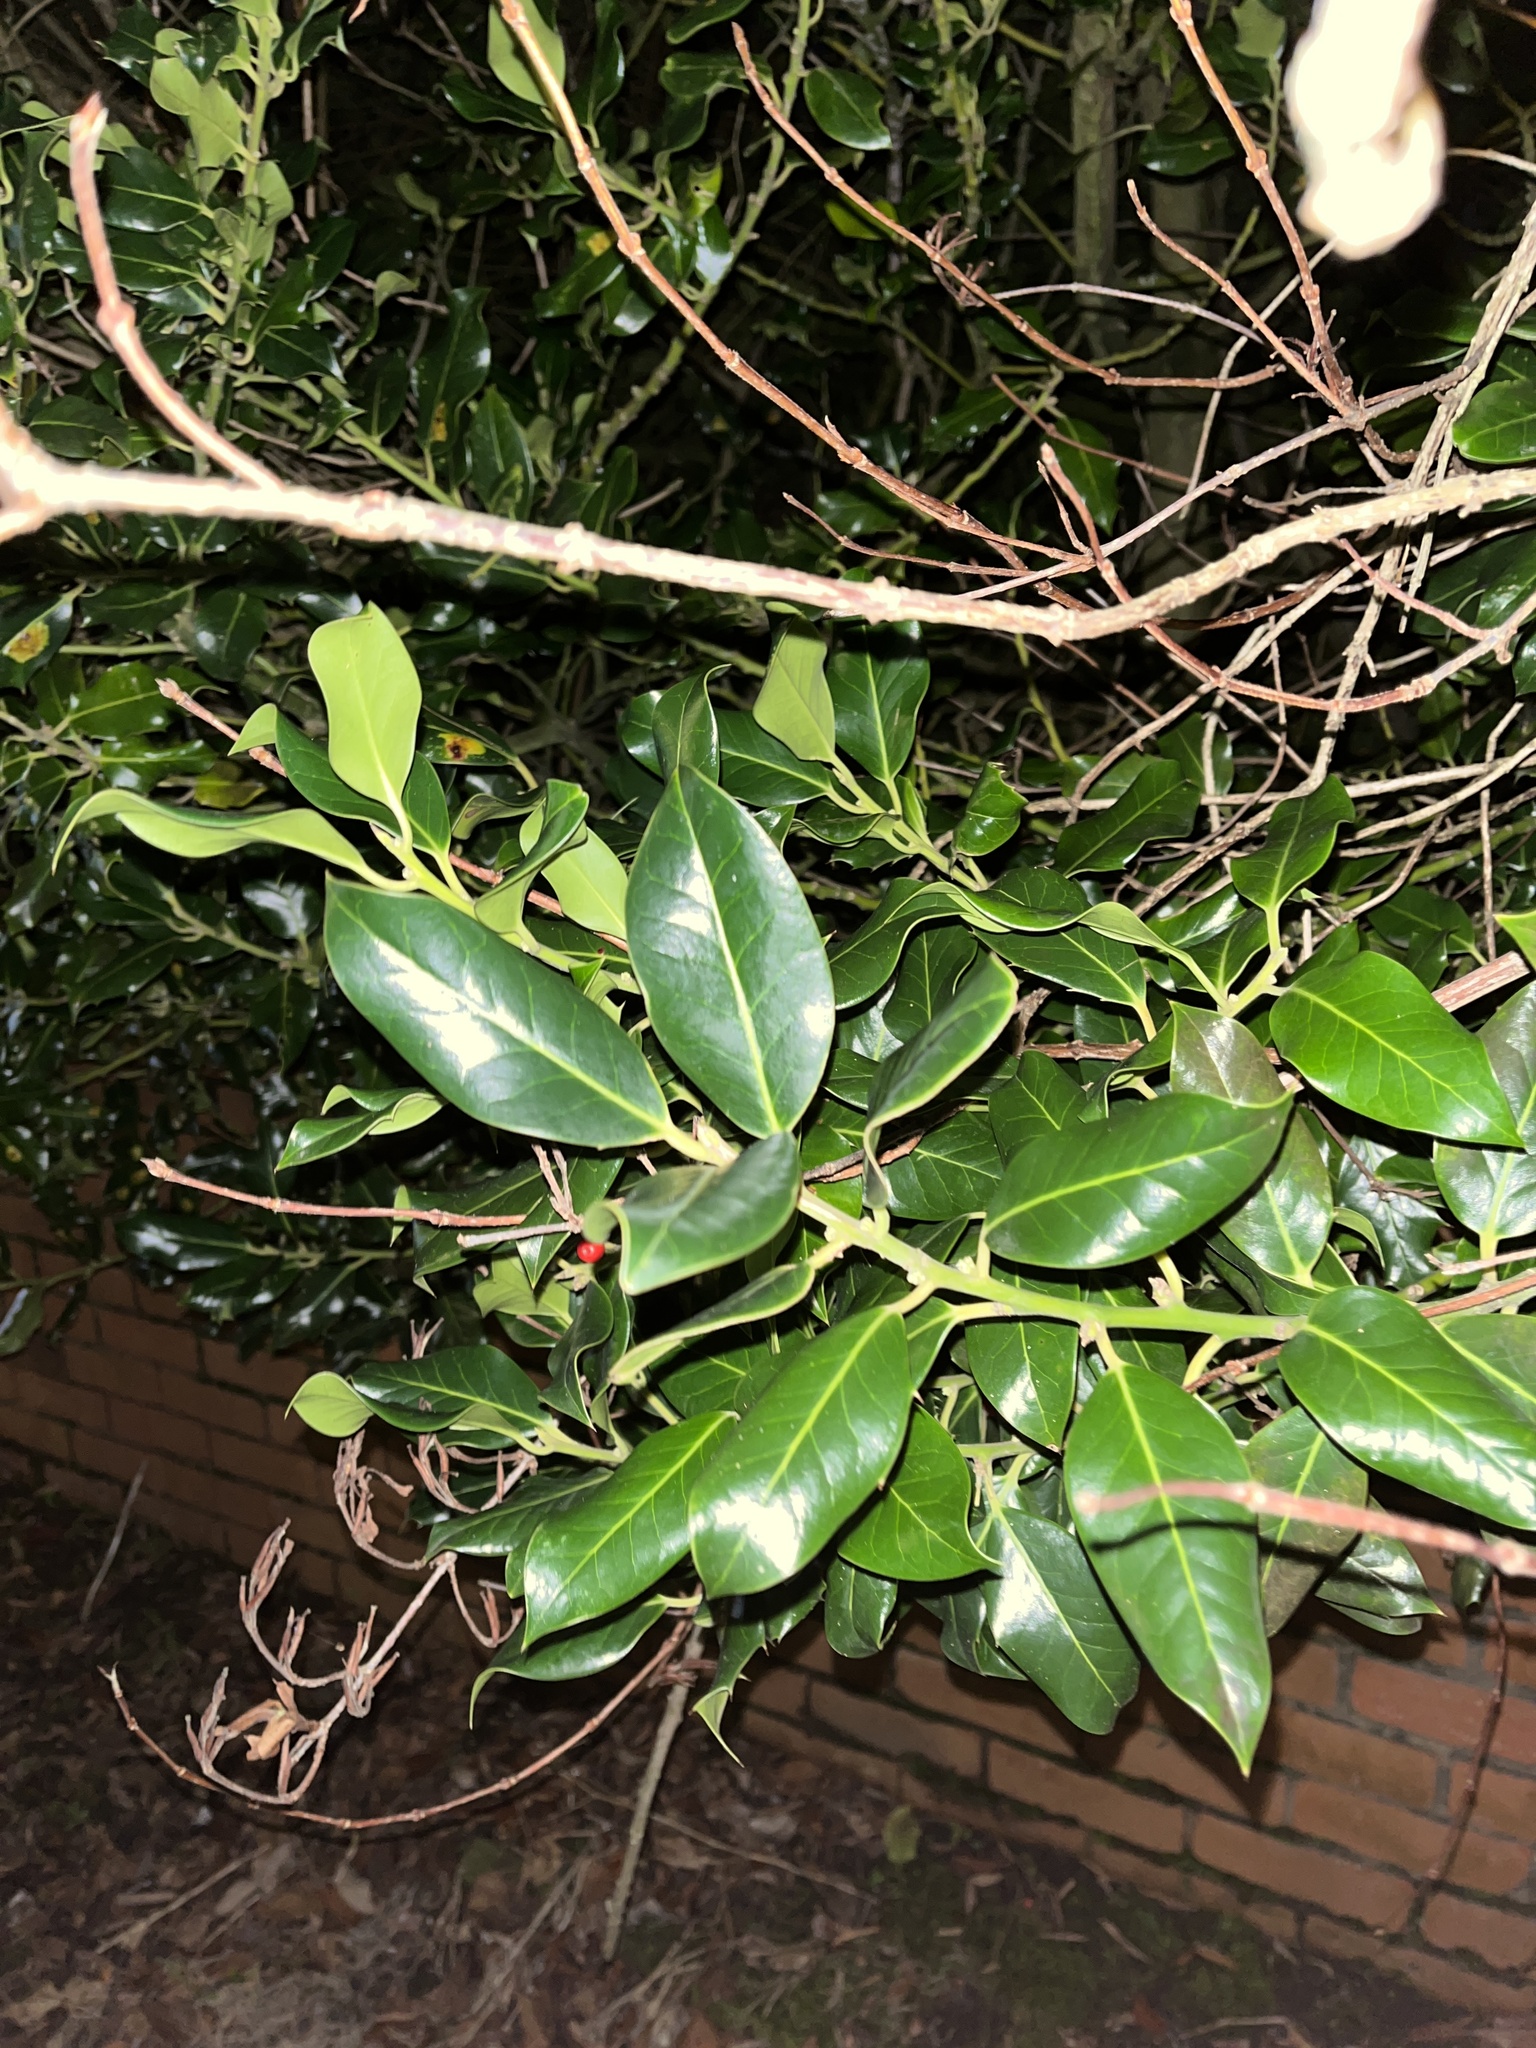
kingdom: Plantae
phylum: Tracheophyta
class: Magnoliopsida
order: Aquifoliales
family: Aquifoliaceae
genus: Ilex
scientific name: Ilex aquifolium
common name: English holly
